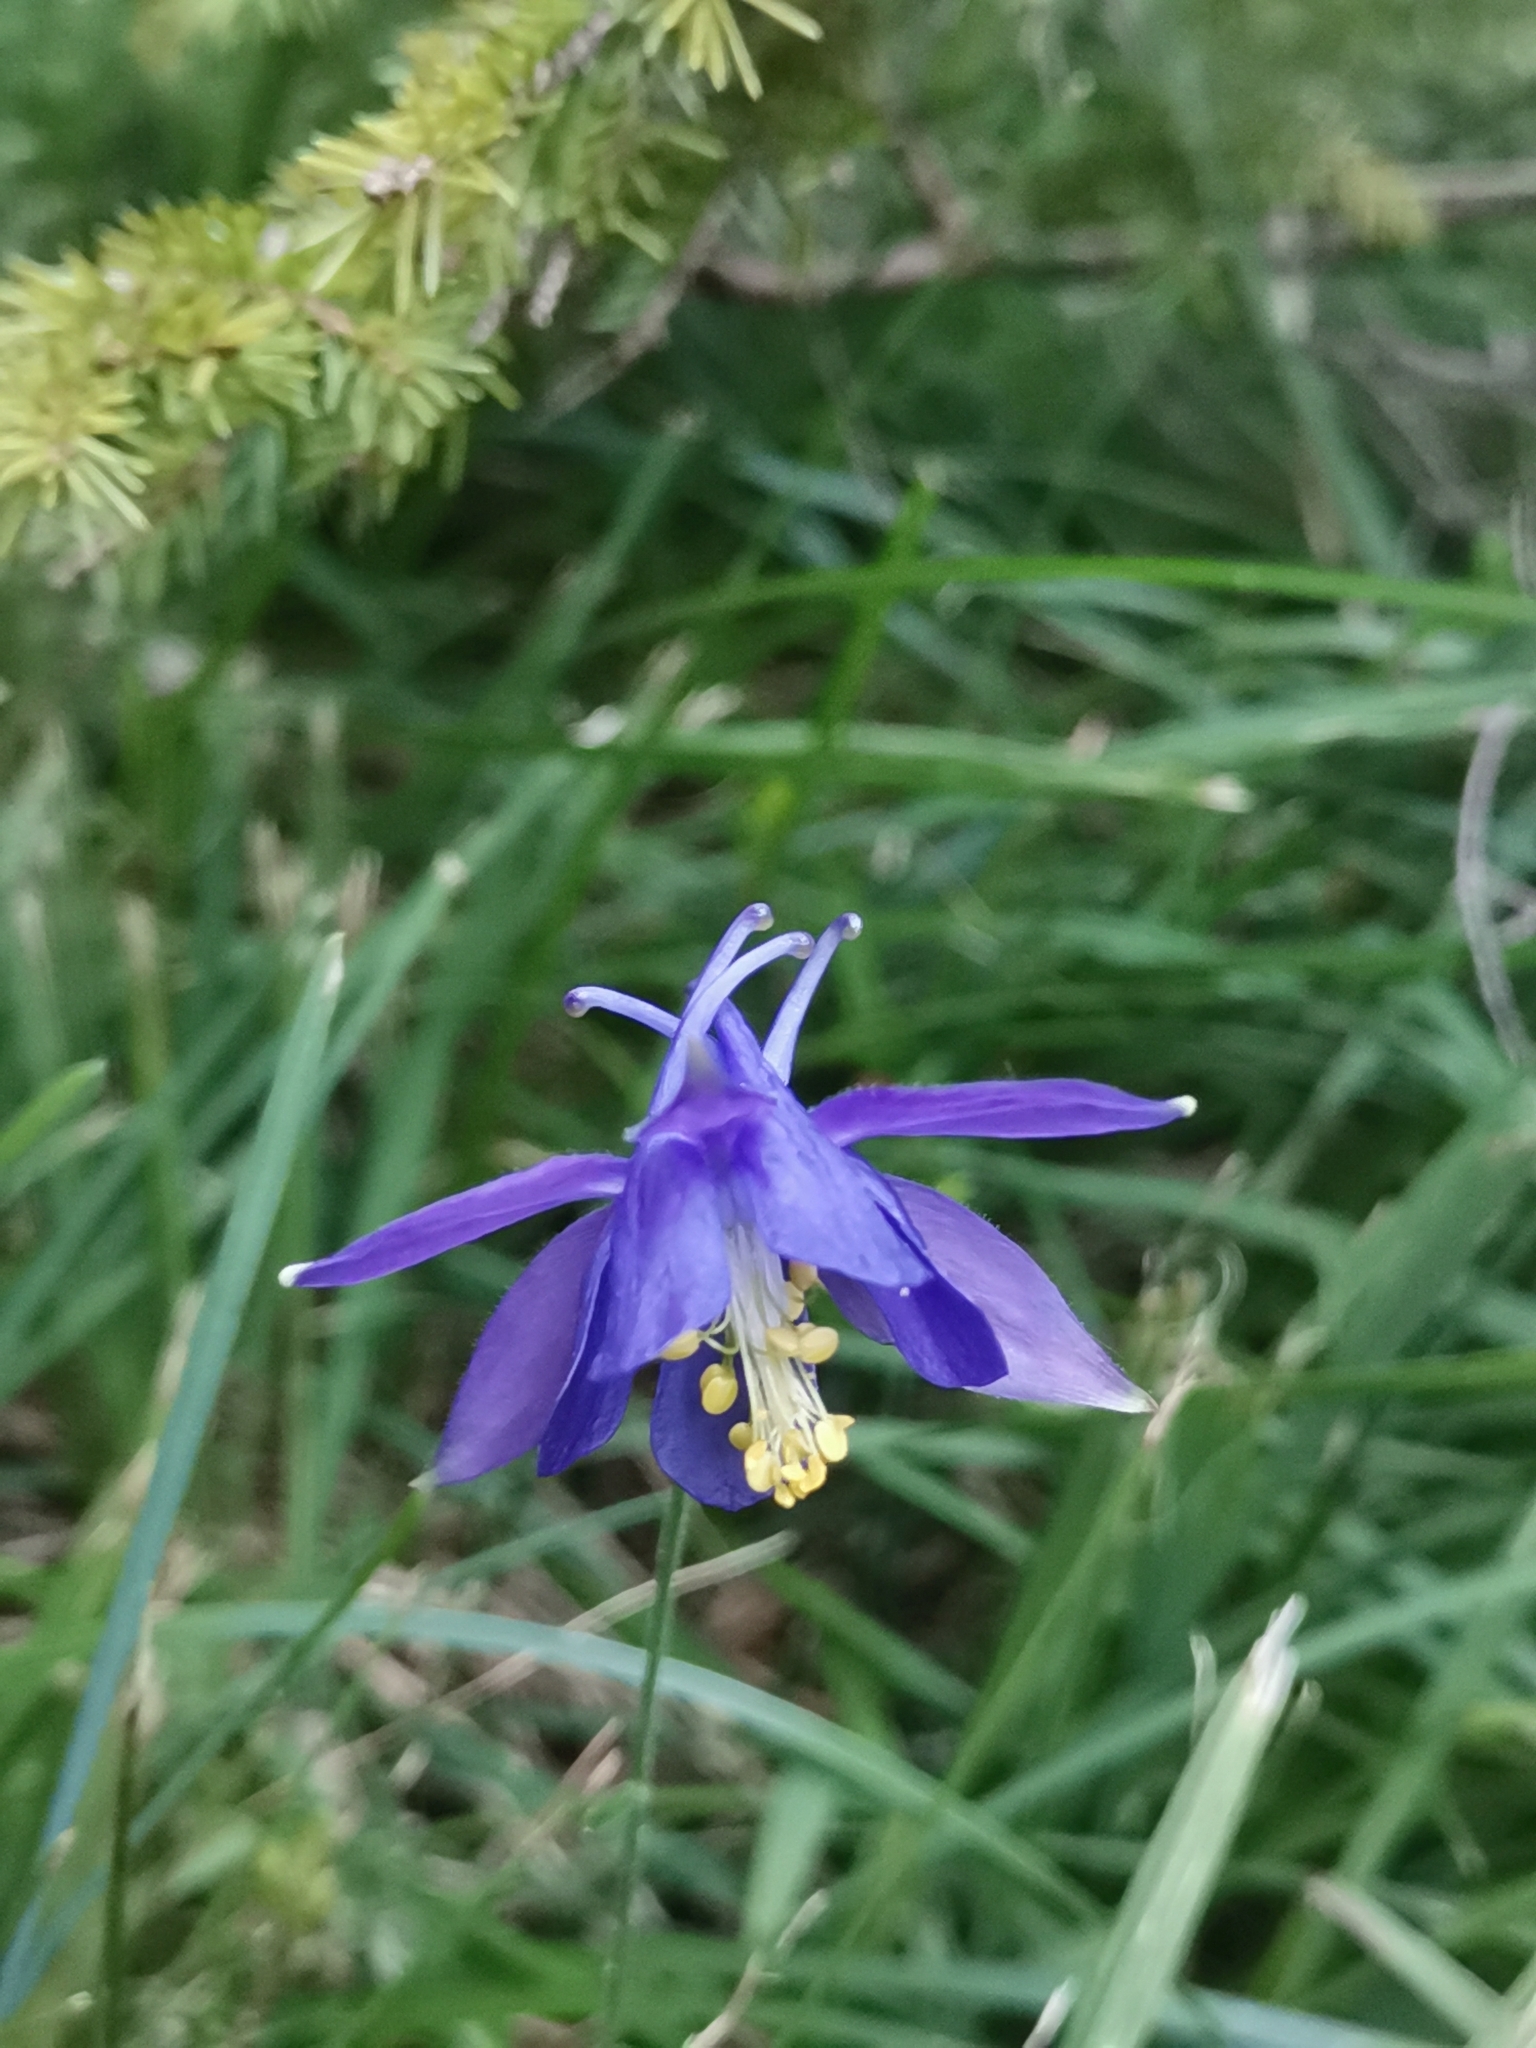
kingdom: Plantae
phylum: Tracheophyta
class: Magnoliopsida
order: Ranunculales
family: Ranunculaceae
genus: Aquilegia
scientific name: Aquilegia einseleana
